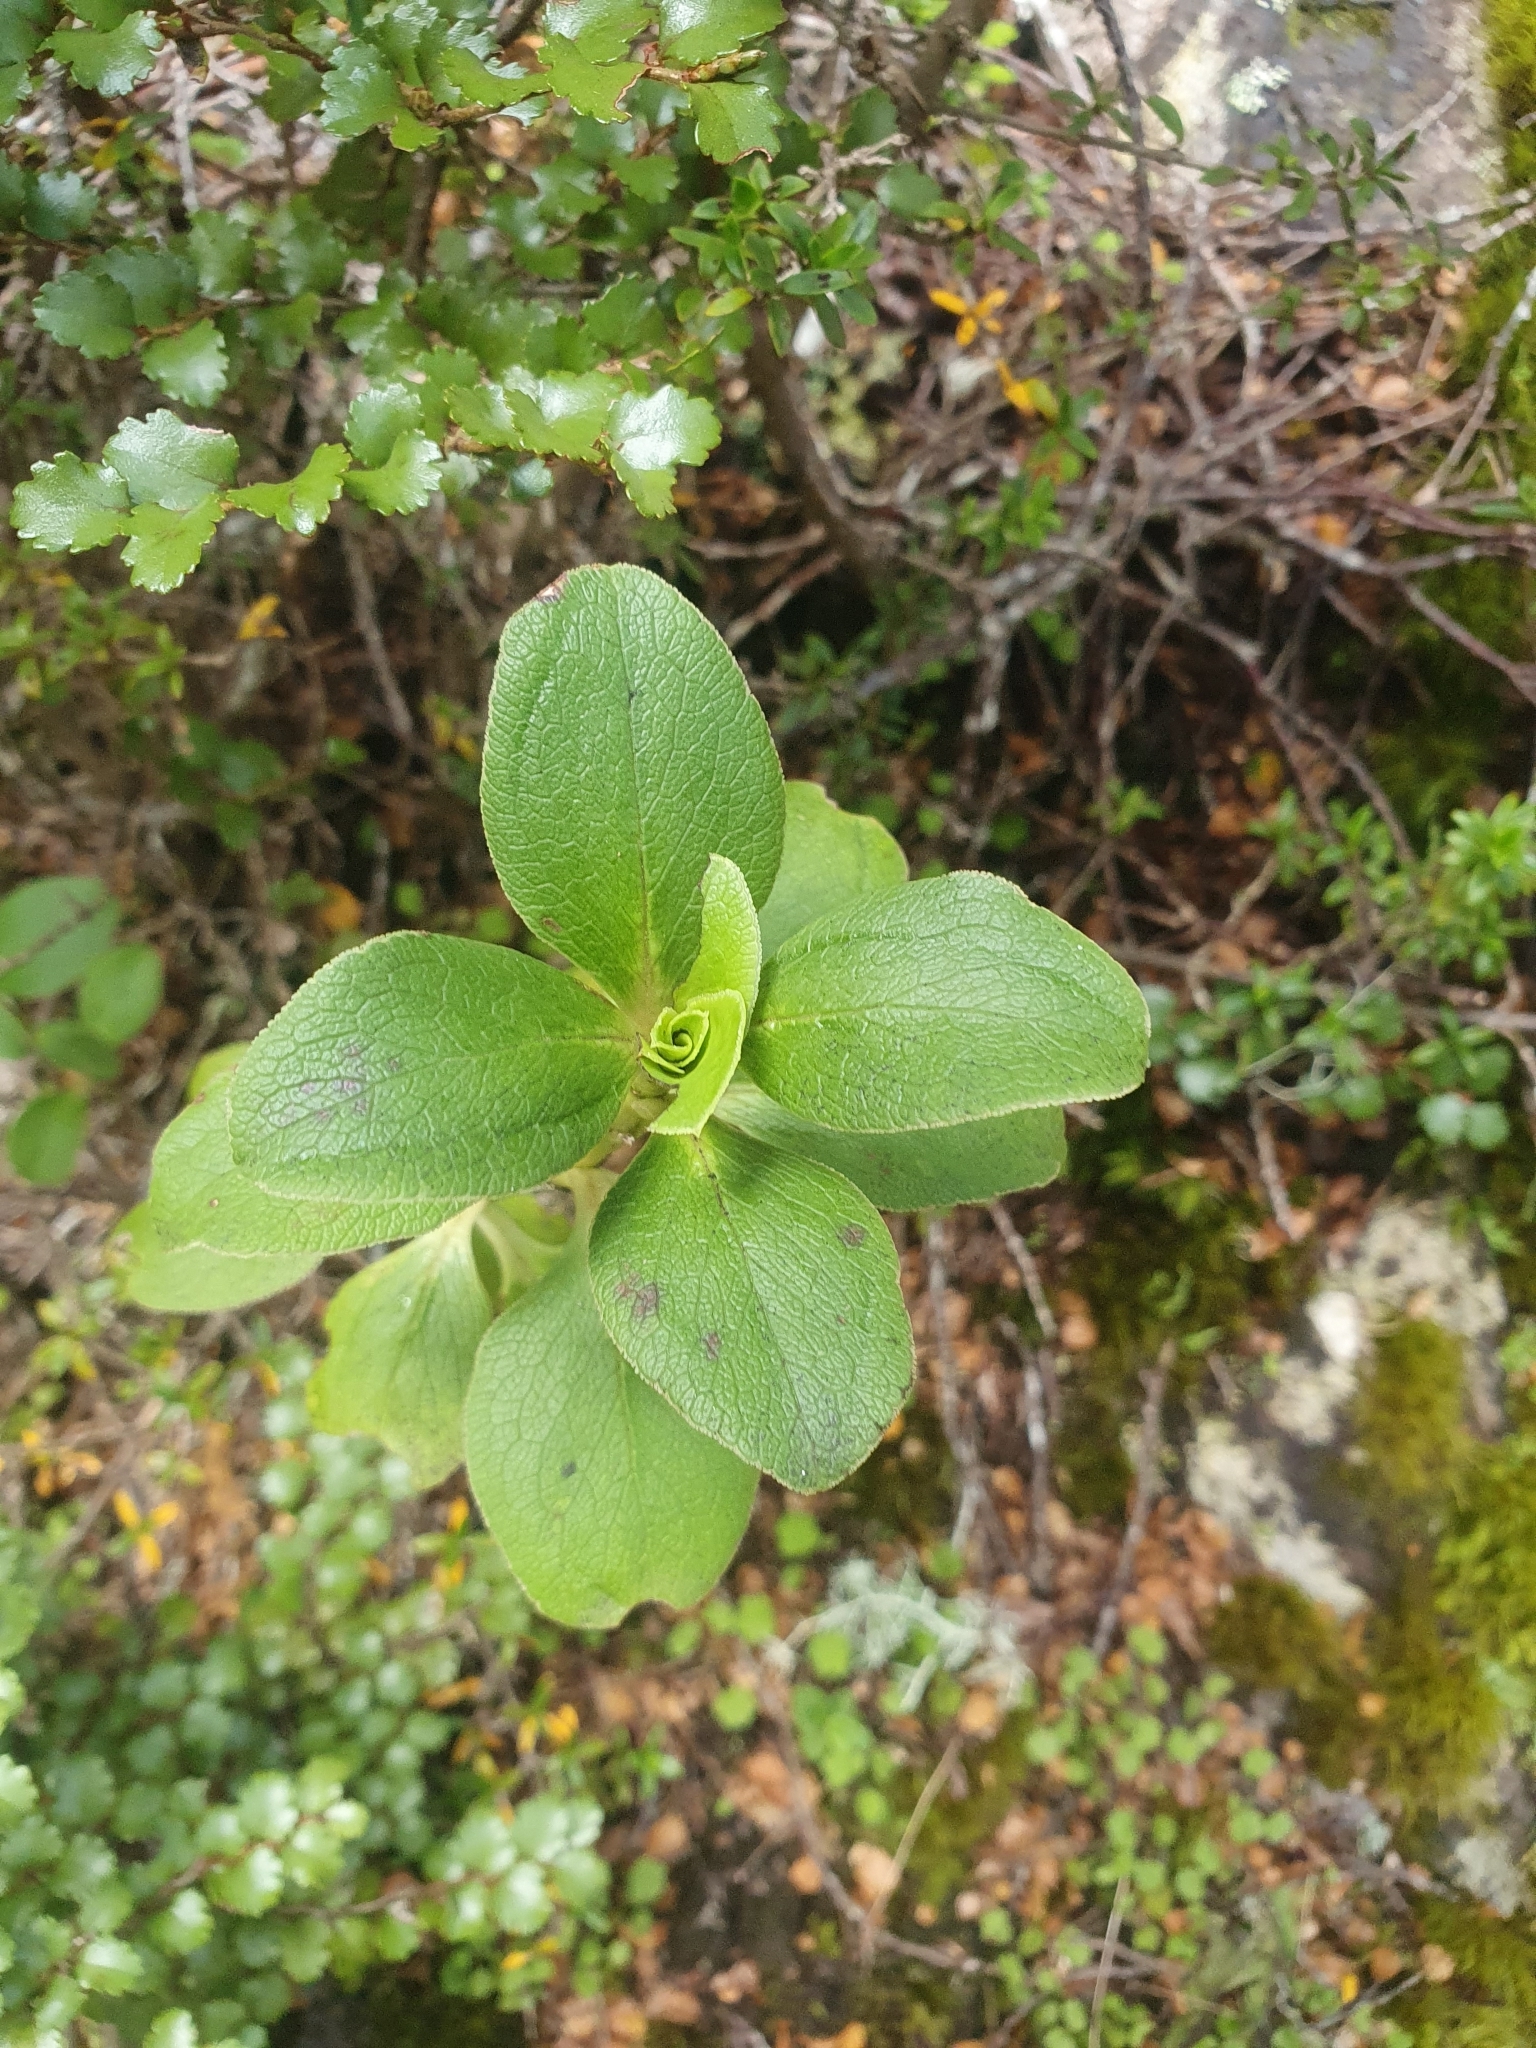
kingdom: Plantae
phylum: Tracheophyta
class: Magnoliopsida
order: Gentianales
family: Rubiaceae
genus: Coprosma
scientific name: Coprosma serrulata
